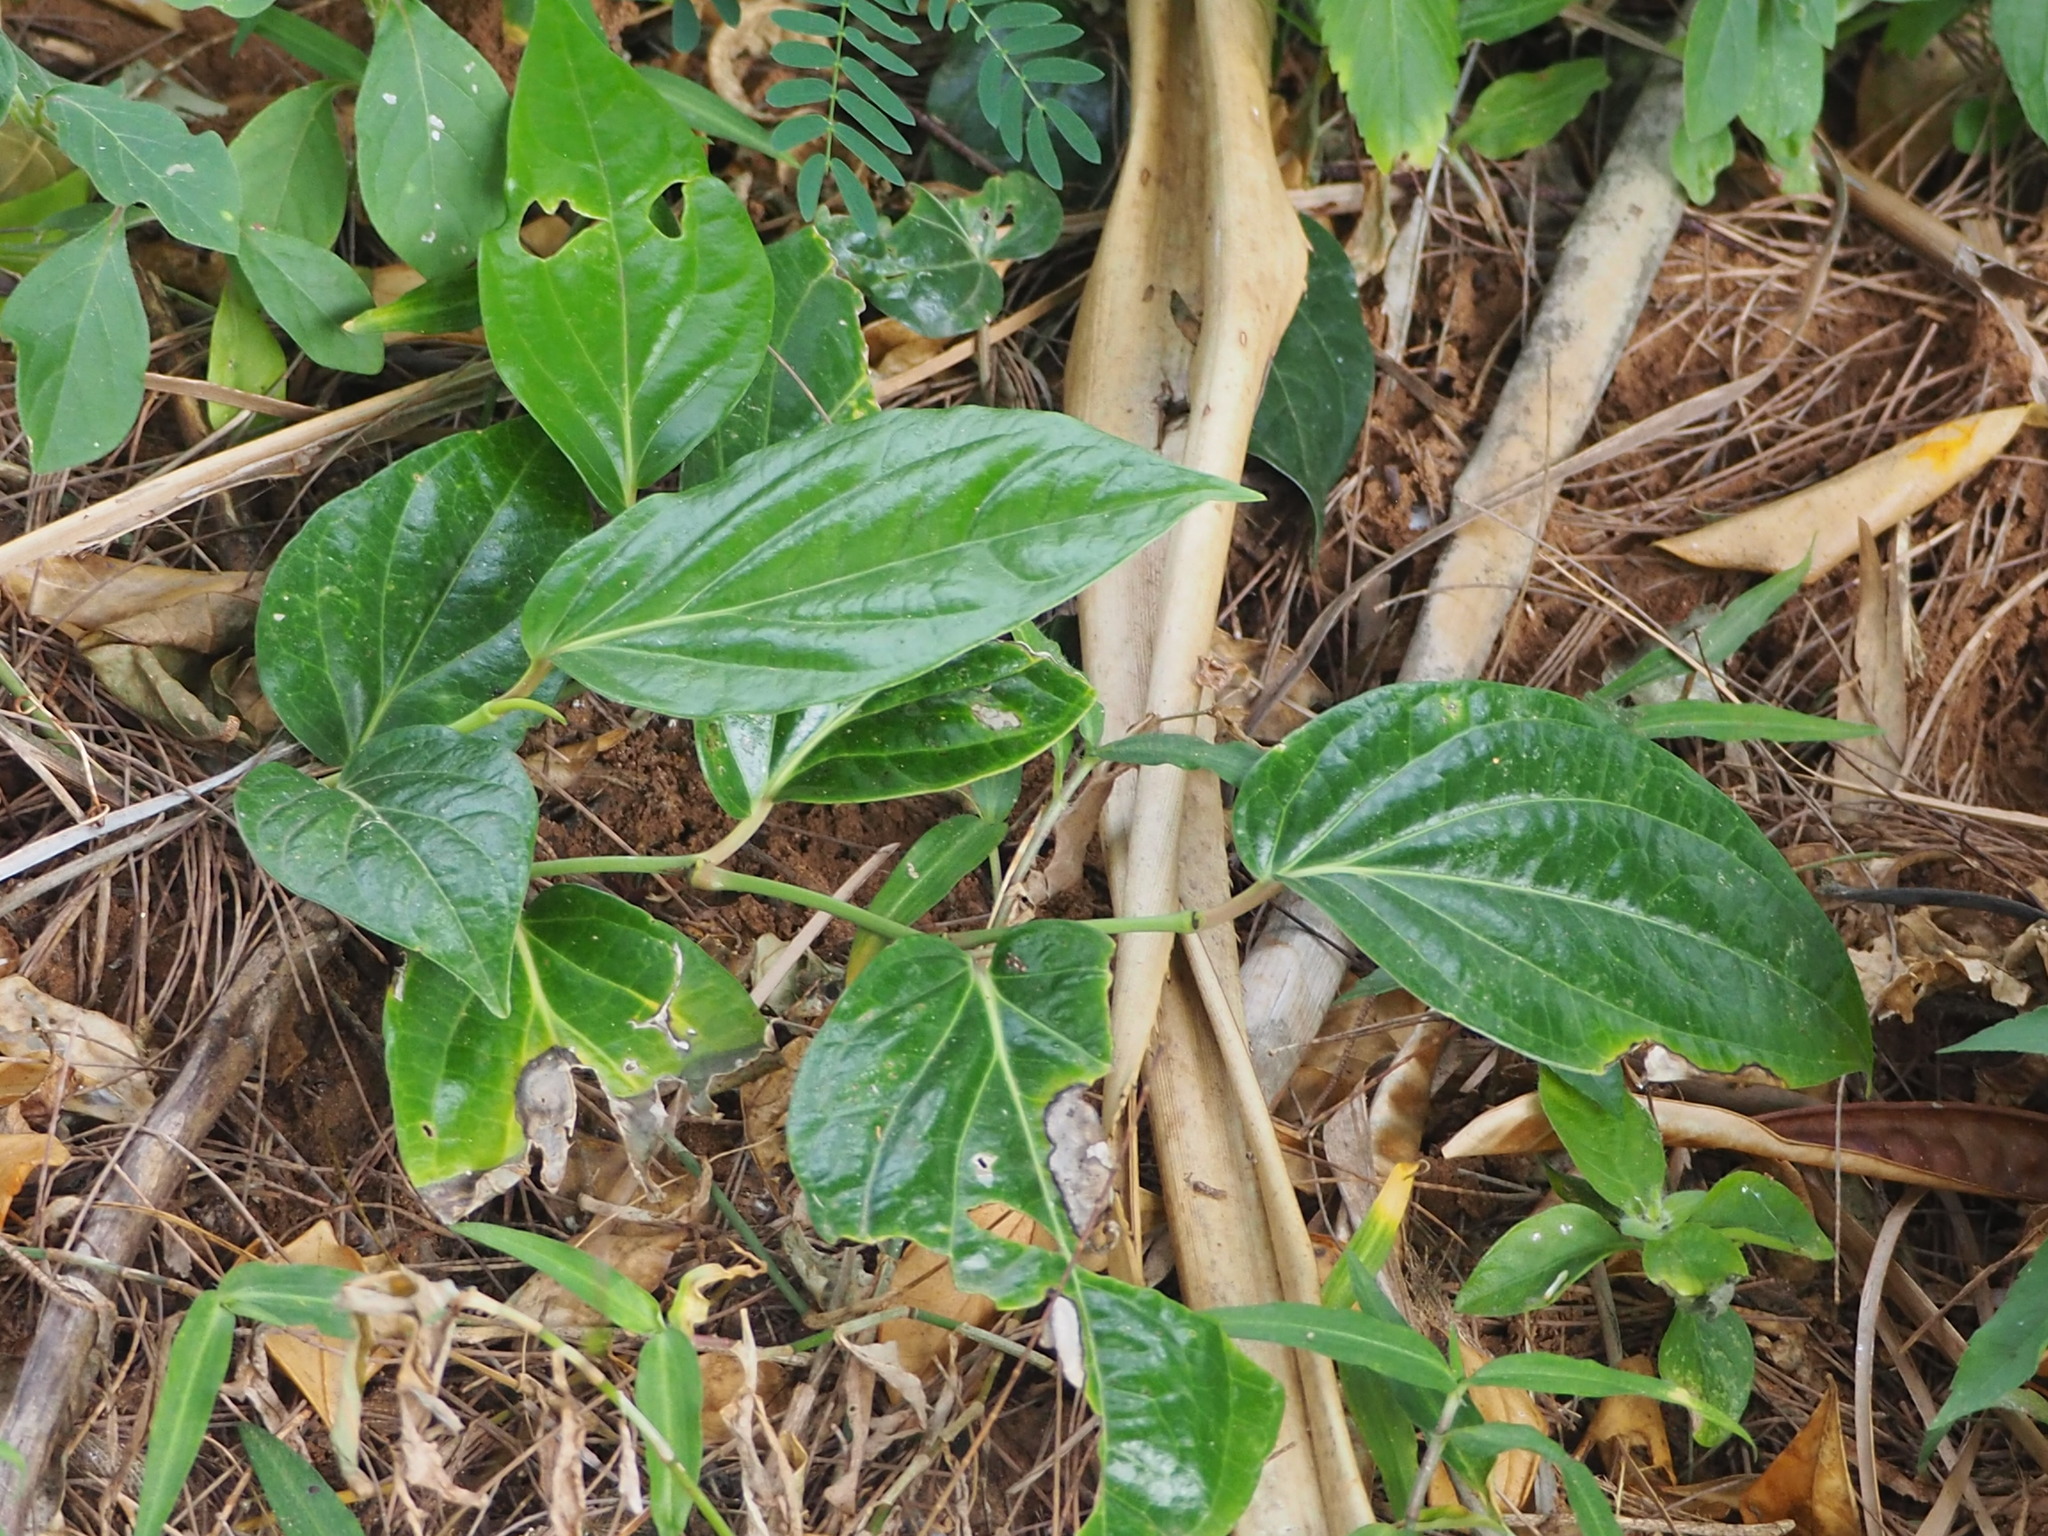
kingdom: Plantae
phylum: Tracheophyta
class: Magnoliopsida
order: Piperales
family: Piperaceae
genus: Piper
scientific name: Piper kawakamii
